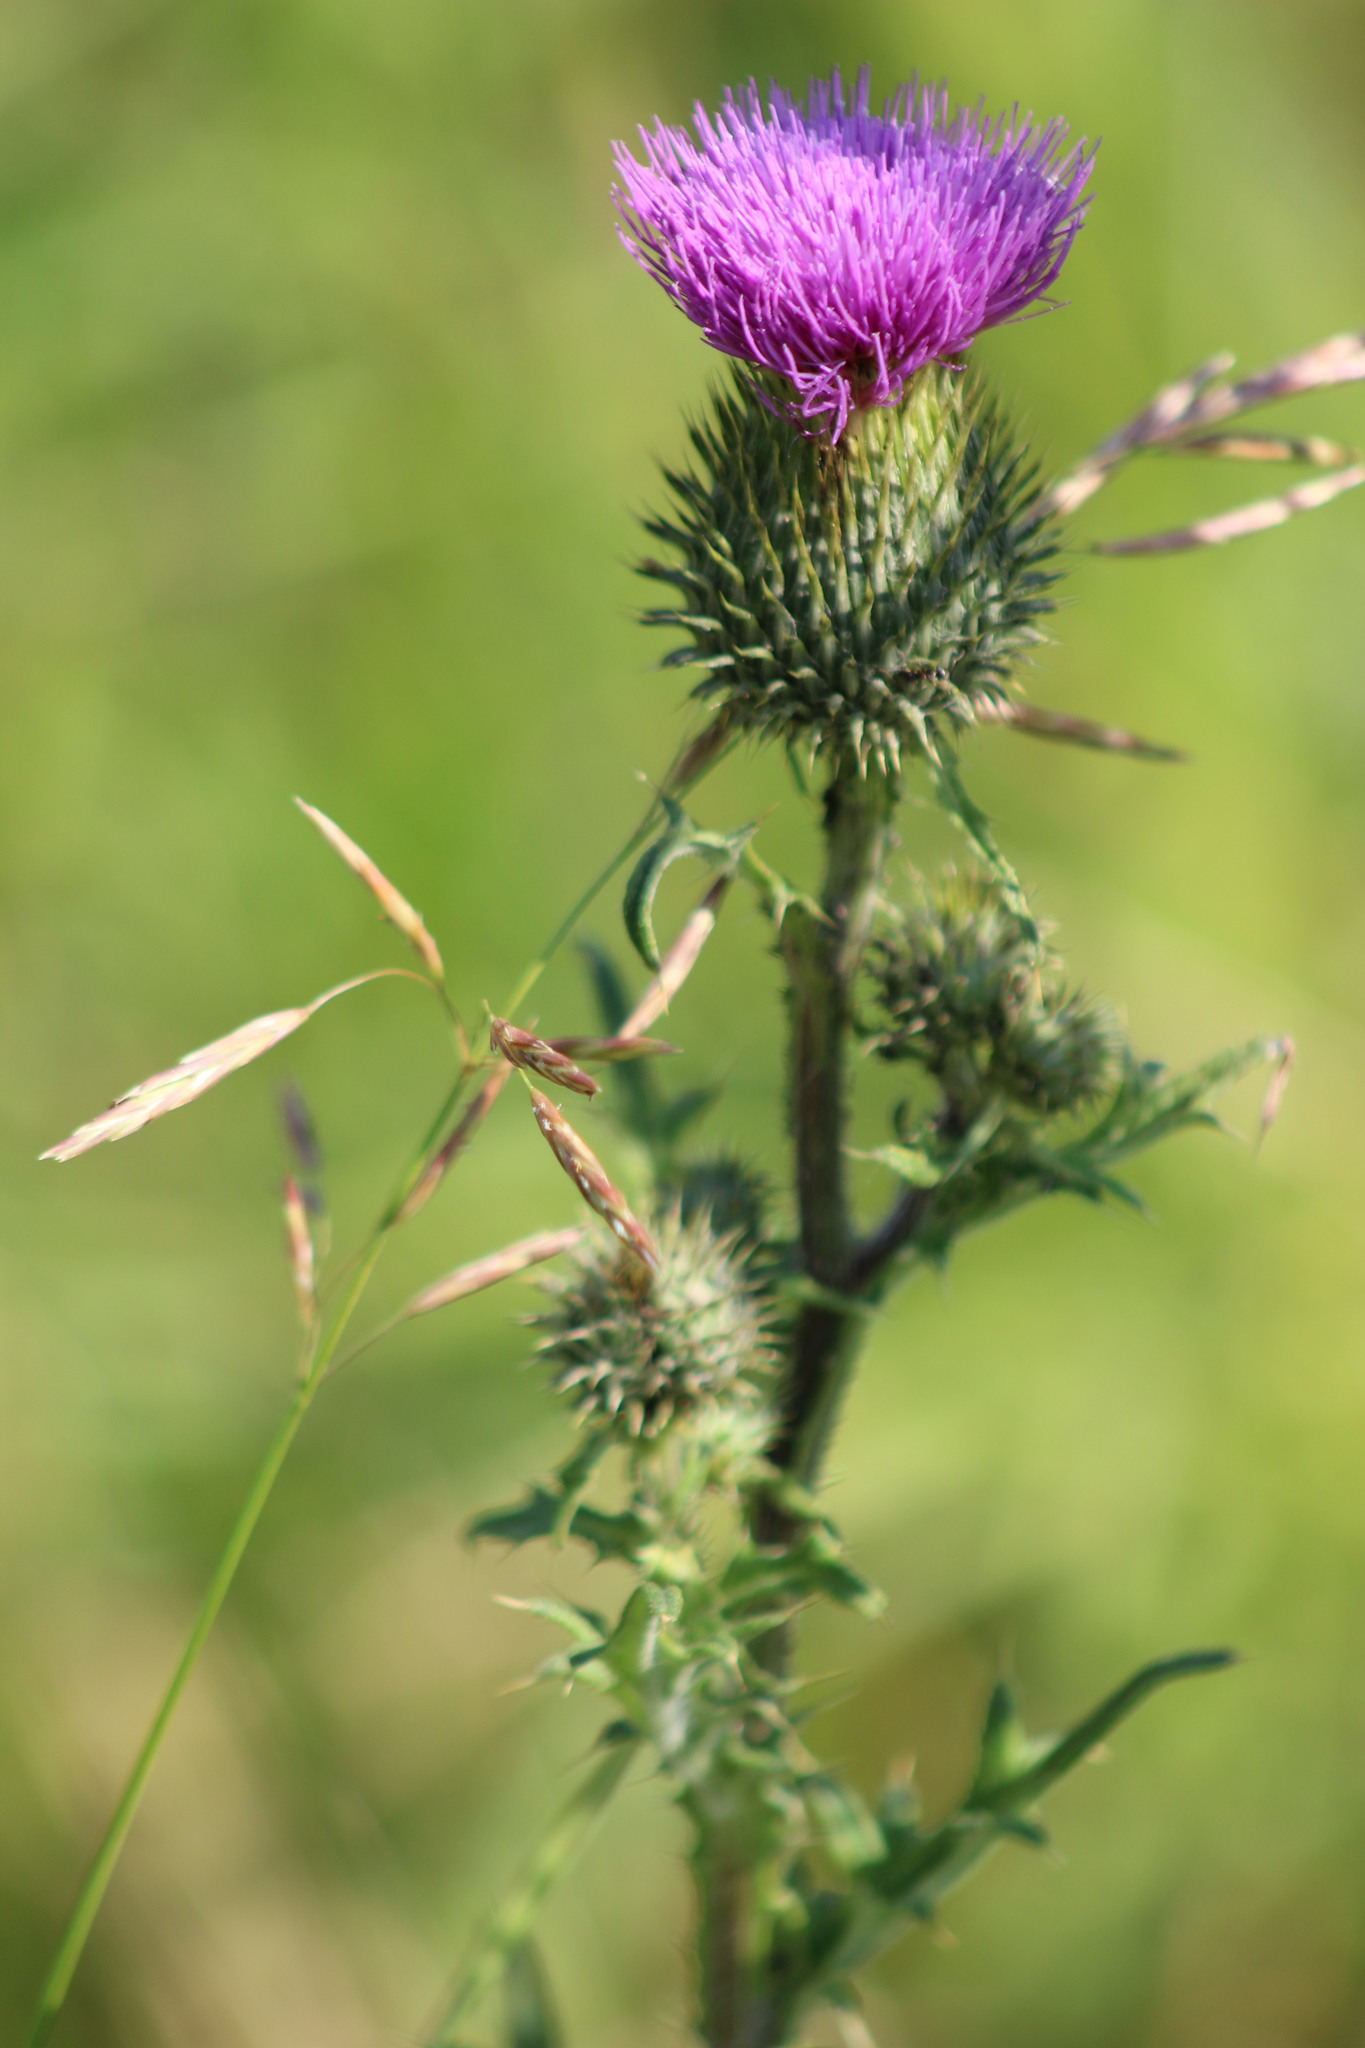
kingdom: Plantae
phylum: Tracheophyta
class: Magnoliopsida
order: Asterales
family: Asteraceae
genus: Cirsium
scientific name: Cirsium vulgare
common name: Bull thistle
